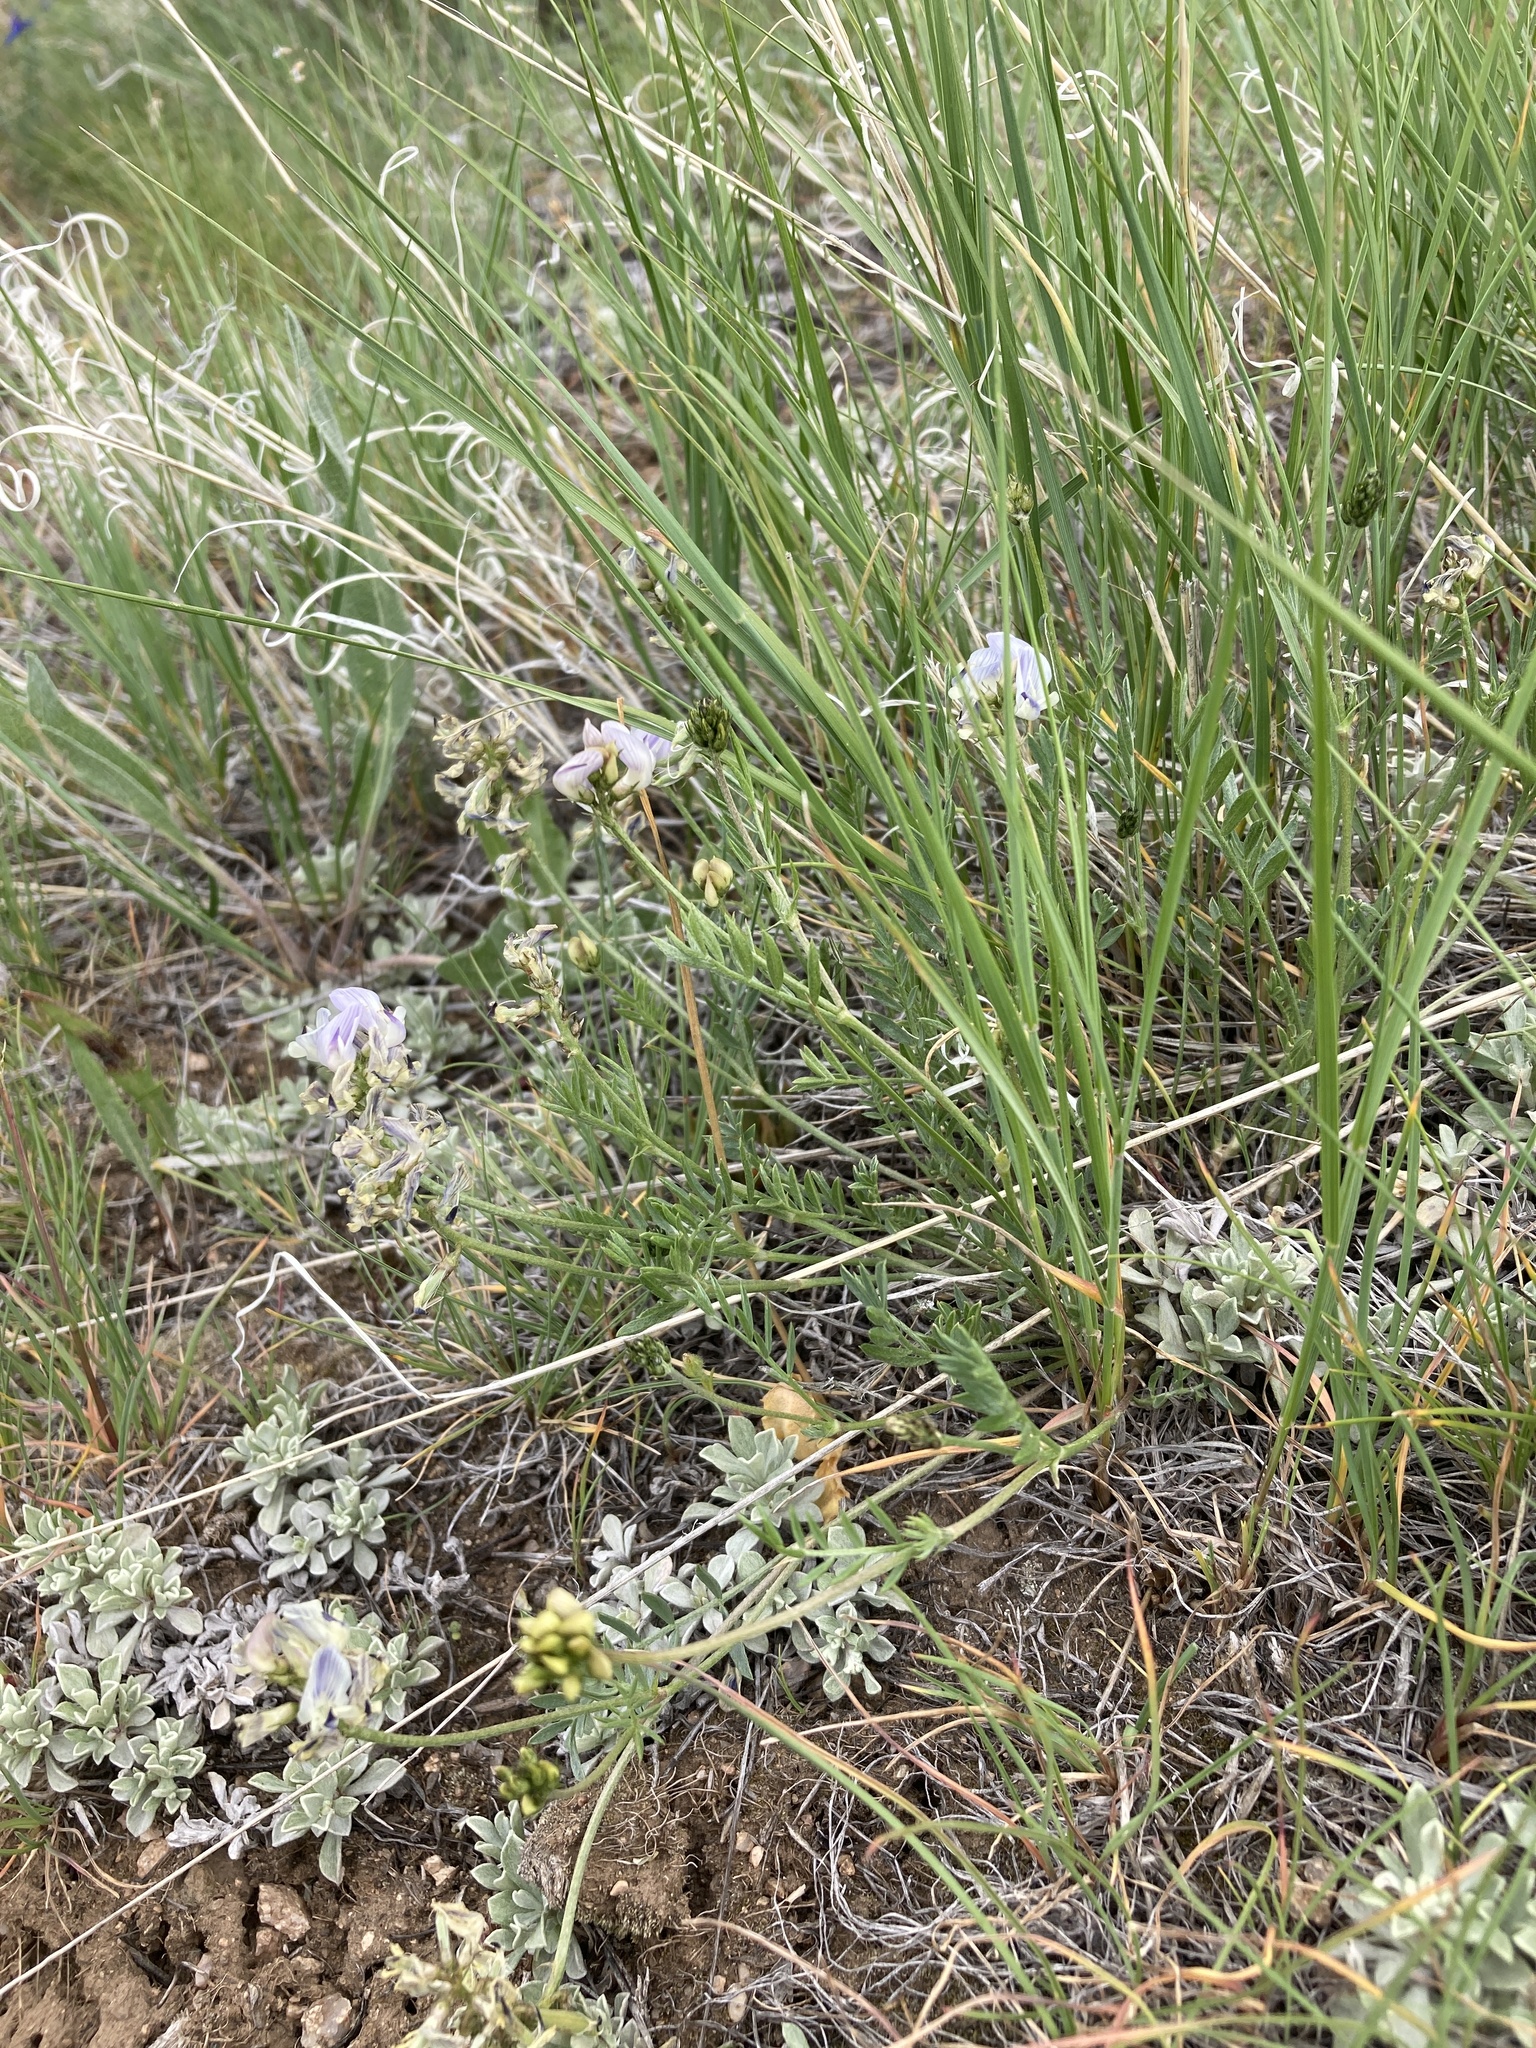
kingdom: Plantae
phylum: Tracheophyta
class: Magnoliopsida
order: Fabales
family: Fabaceae
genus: Astragalus
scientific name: Astragalus miser
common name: Timber milkvetch
